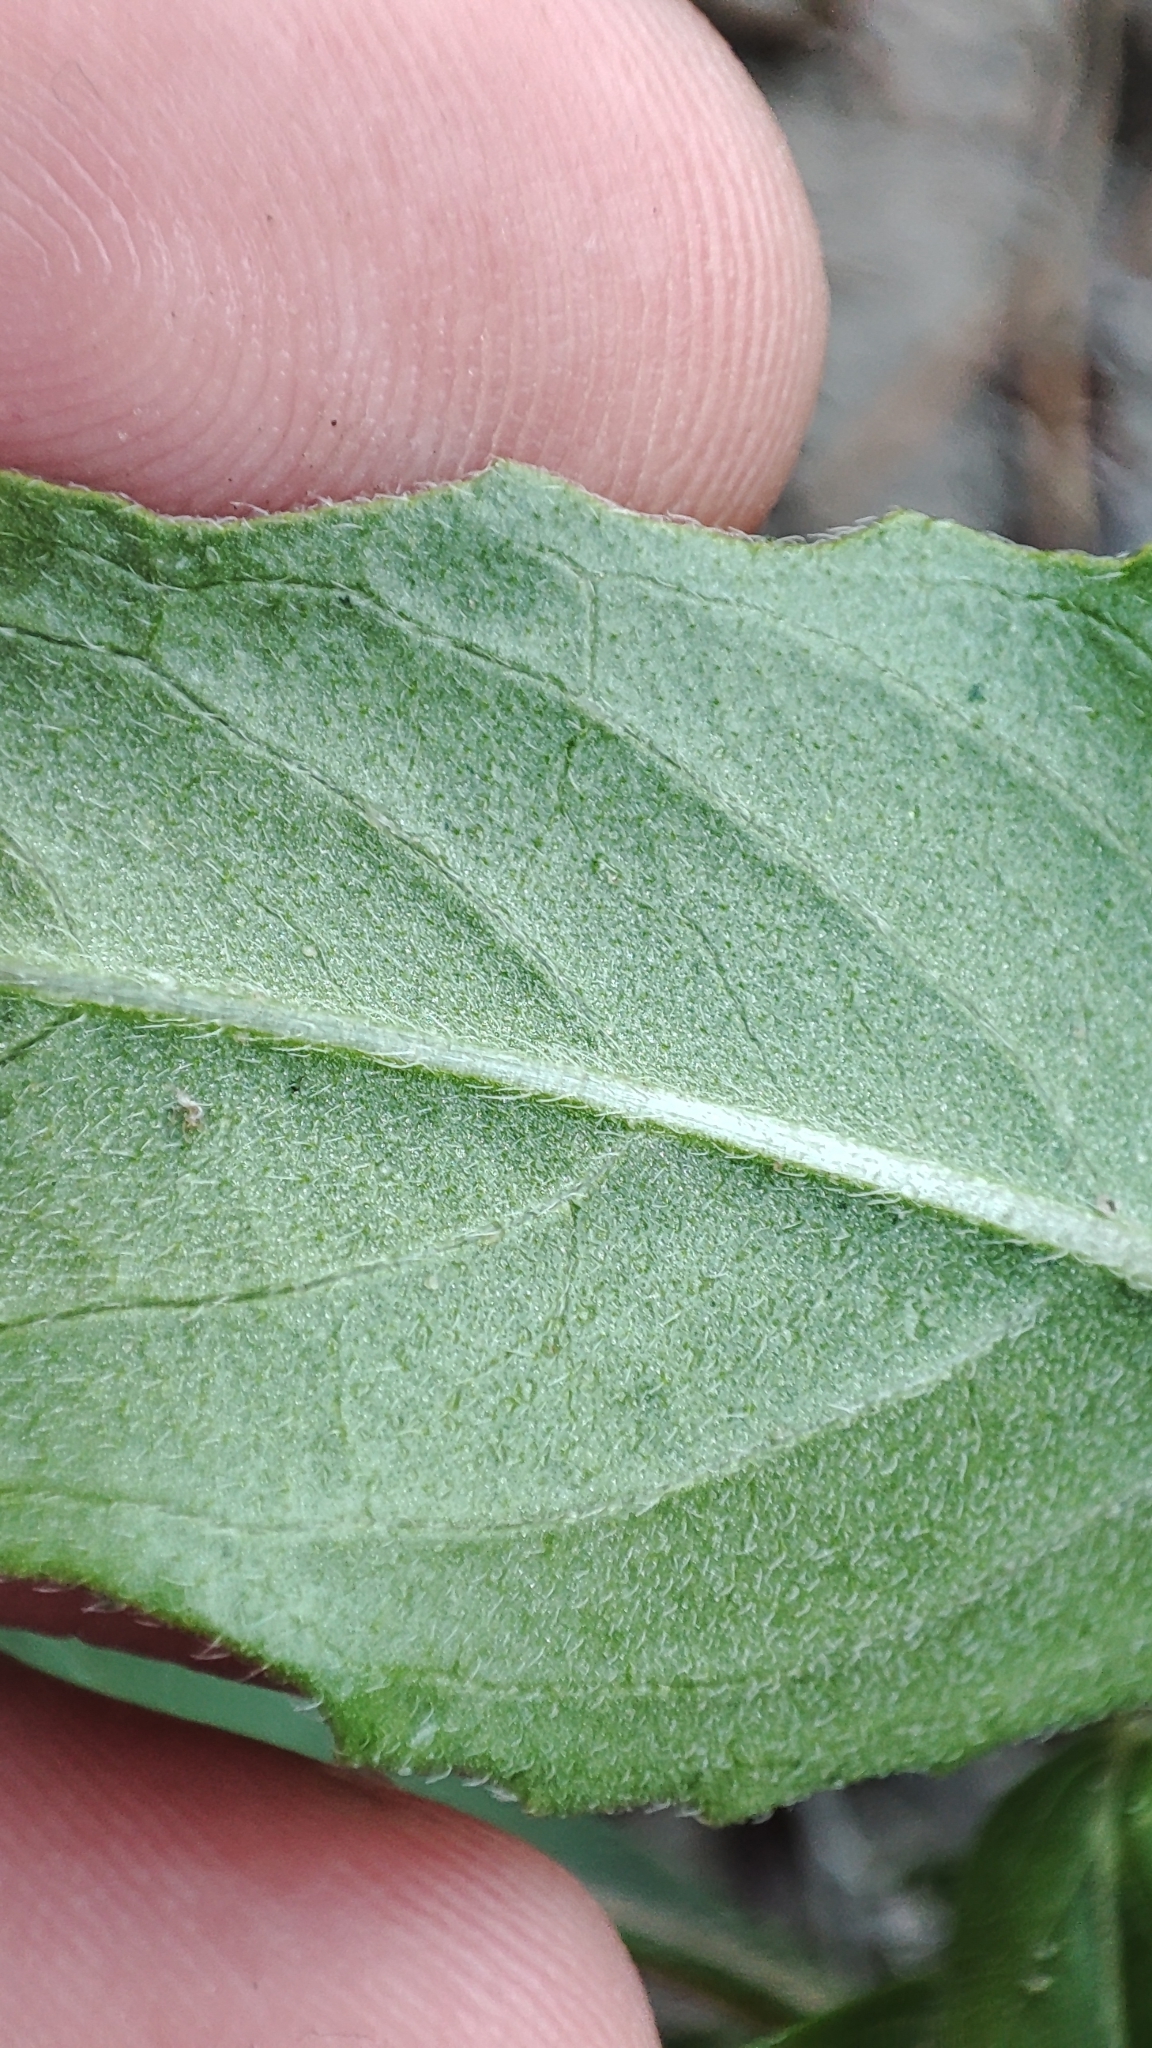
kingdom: Plantae
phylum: Tracheophyta
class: Magnoliopsida
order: Myrtales
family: Onagraceae
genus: Oenothera
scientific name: Oenothera rubricaulis
